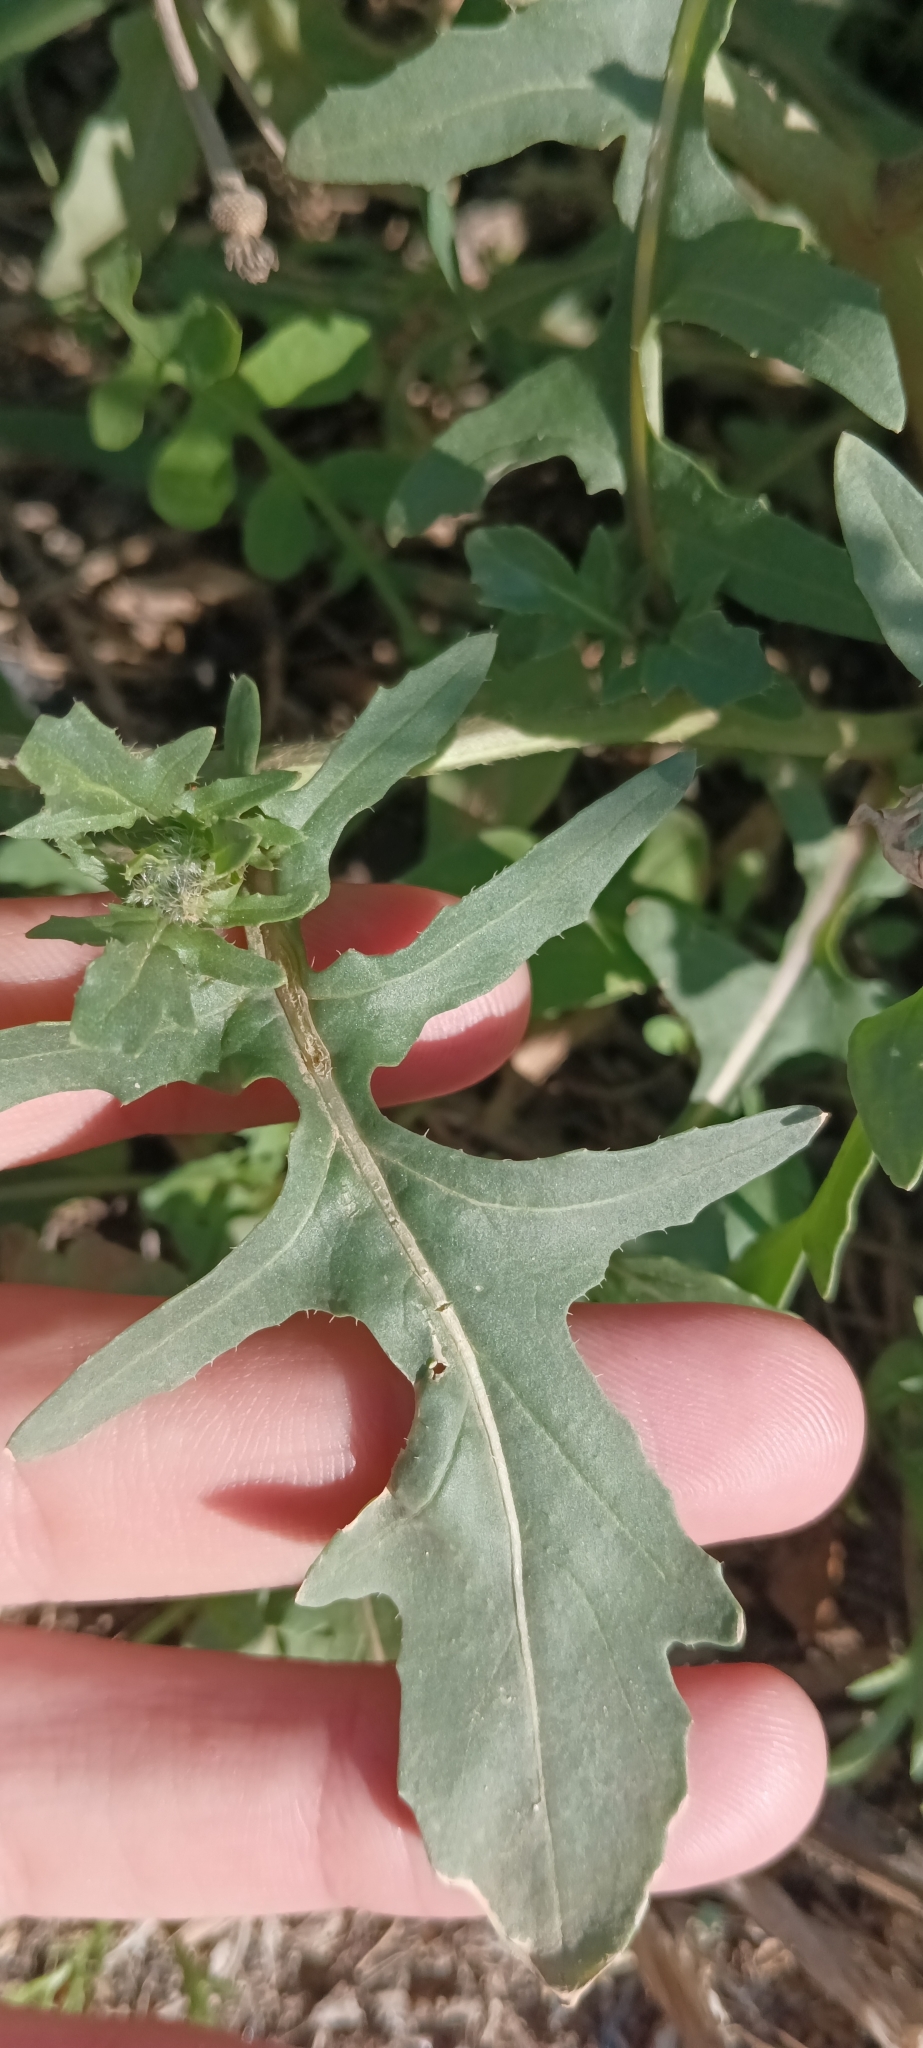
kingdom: Plantae
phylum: Tracheophyta
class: Magnoliopsida
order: Brassicales
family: Brassicaceae
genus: Eruca
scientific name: Eruca vesicaria
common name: Garden rocket
